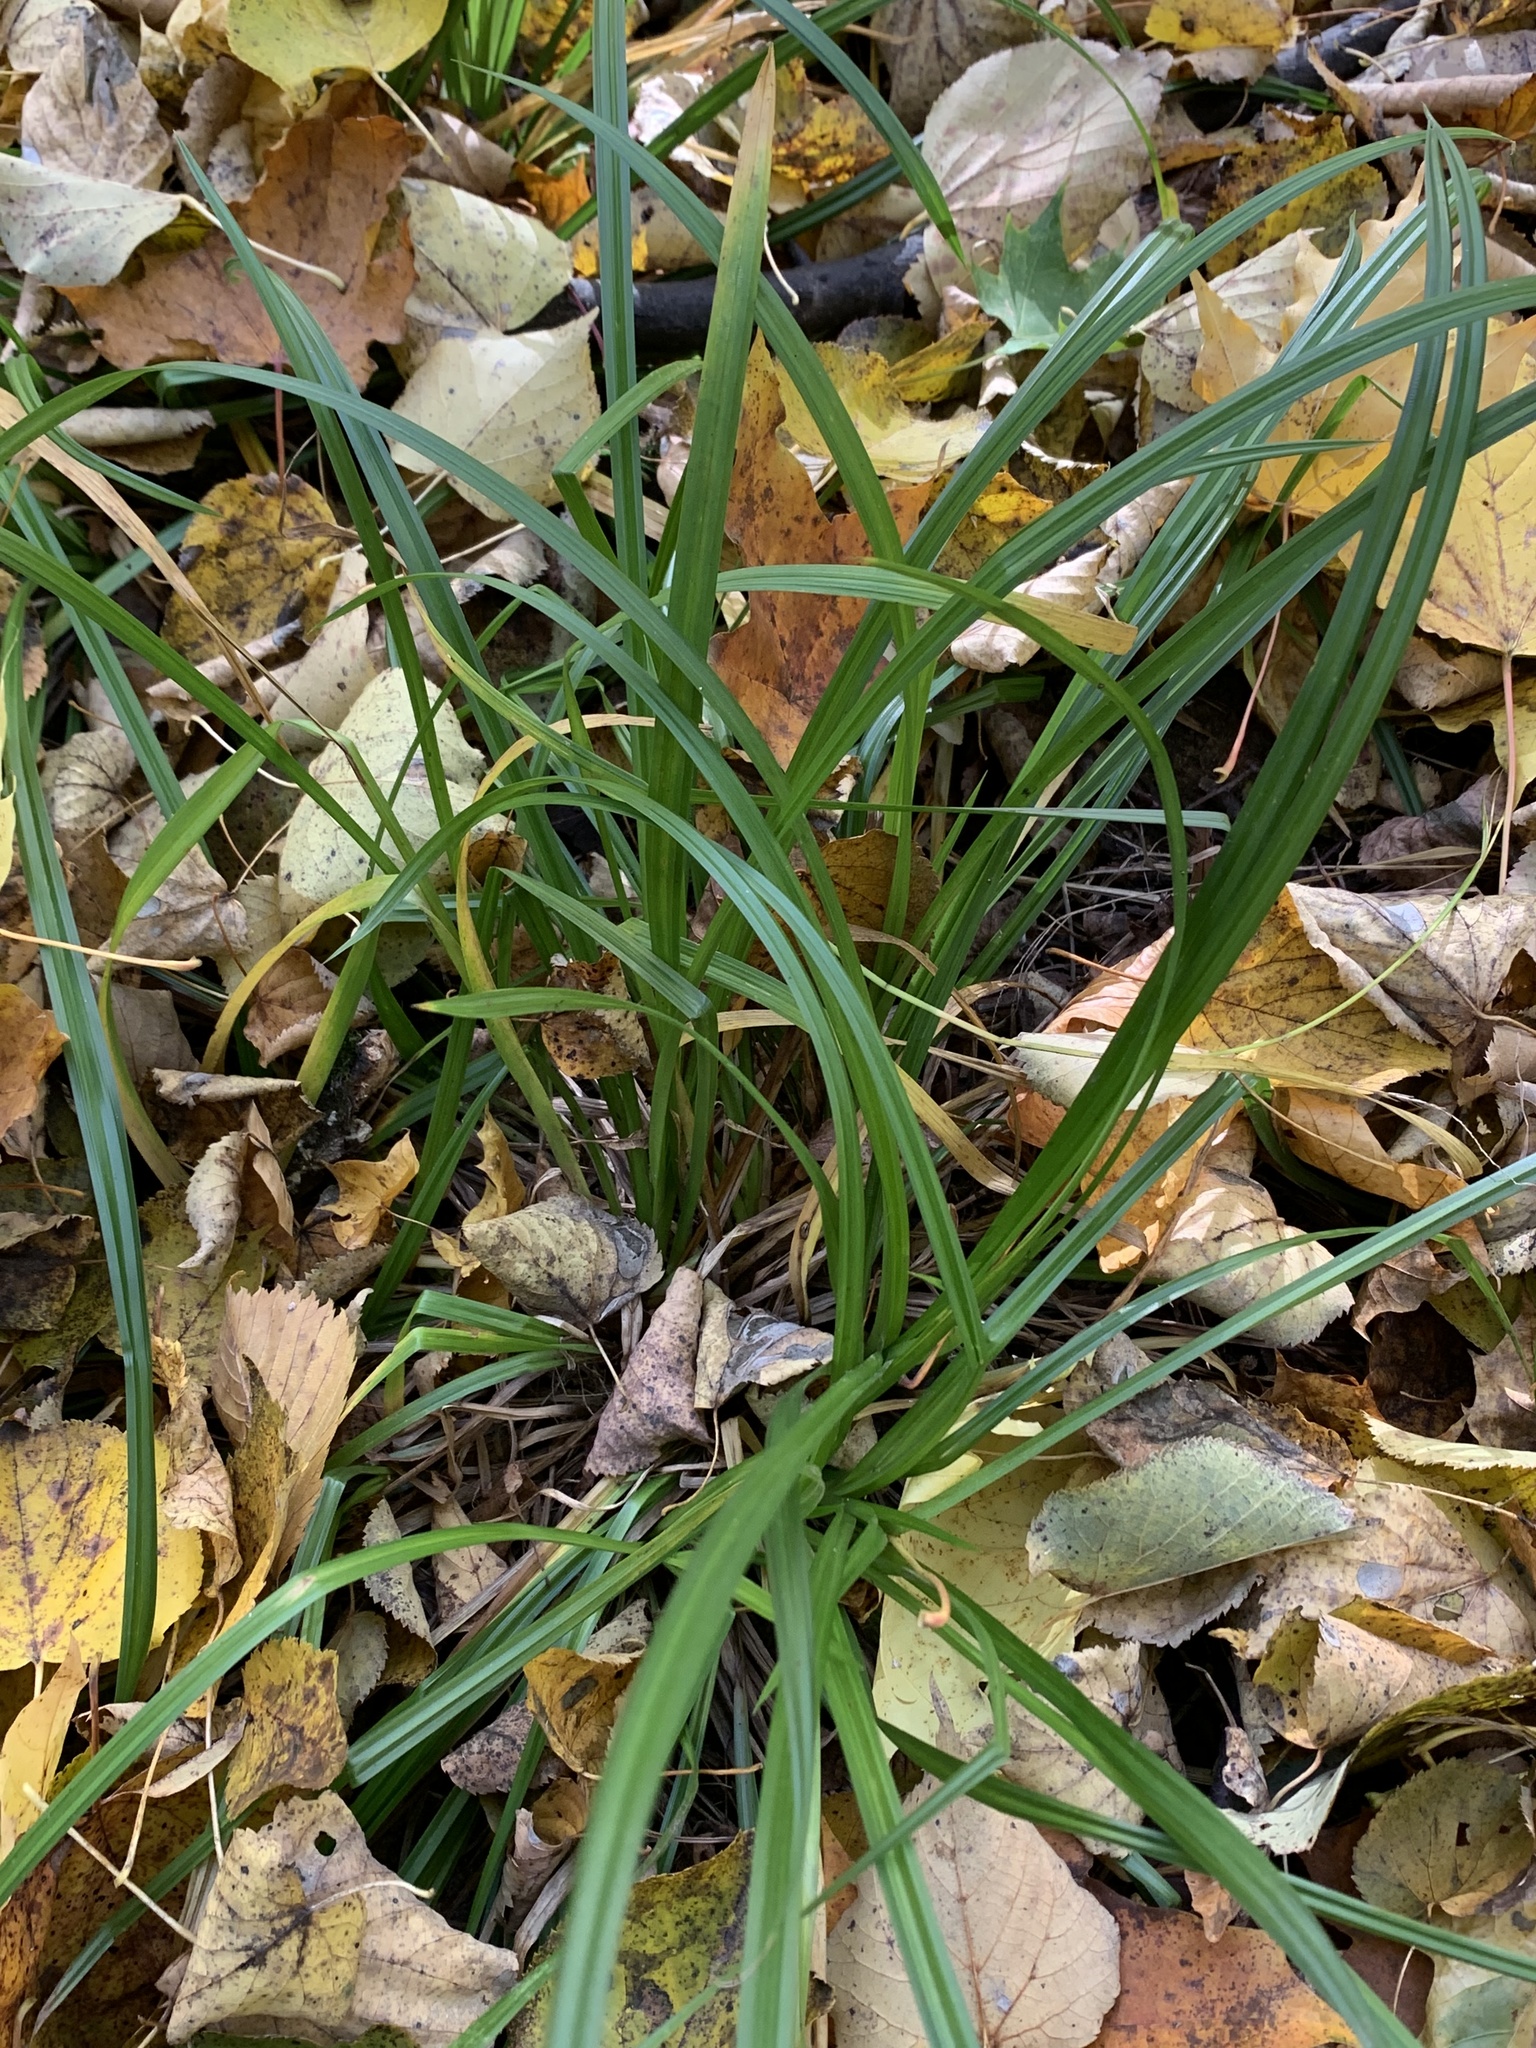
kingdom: Plantae
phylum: Tracheophyta
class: Liliopsida
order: Poales
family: Cyperaceae
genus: Carex
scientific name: Carex sylvatica
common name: Wood-sedge
